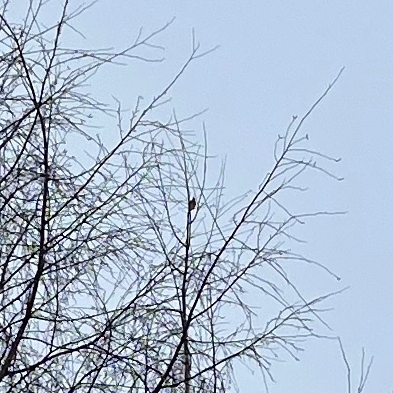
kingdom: Plantae
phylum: Tracheophyta
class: Liliopsida
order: Poales
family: Poaceae
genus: Chloris
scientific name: Chloris chloris
